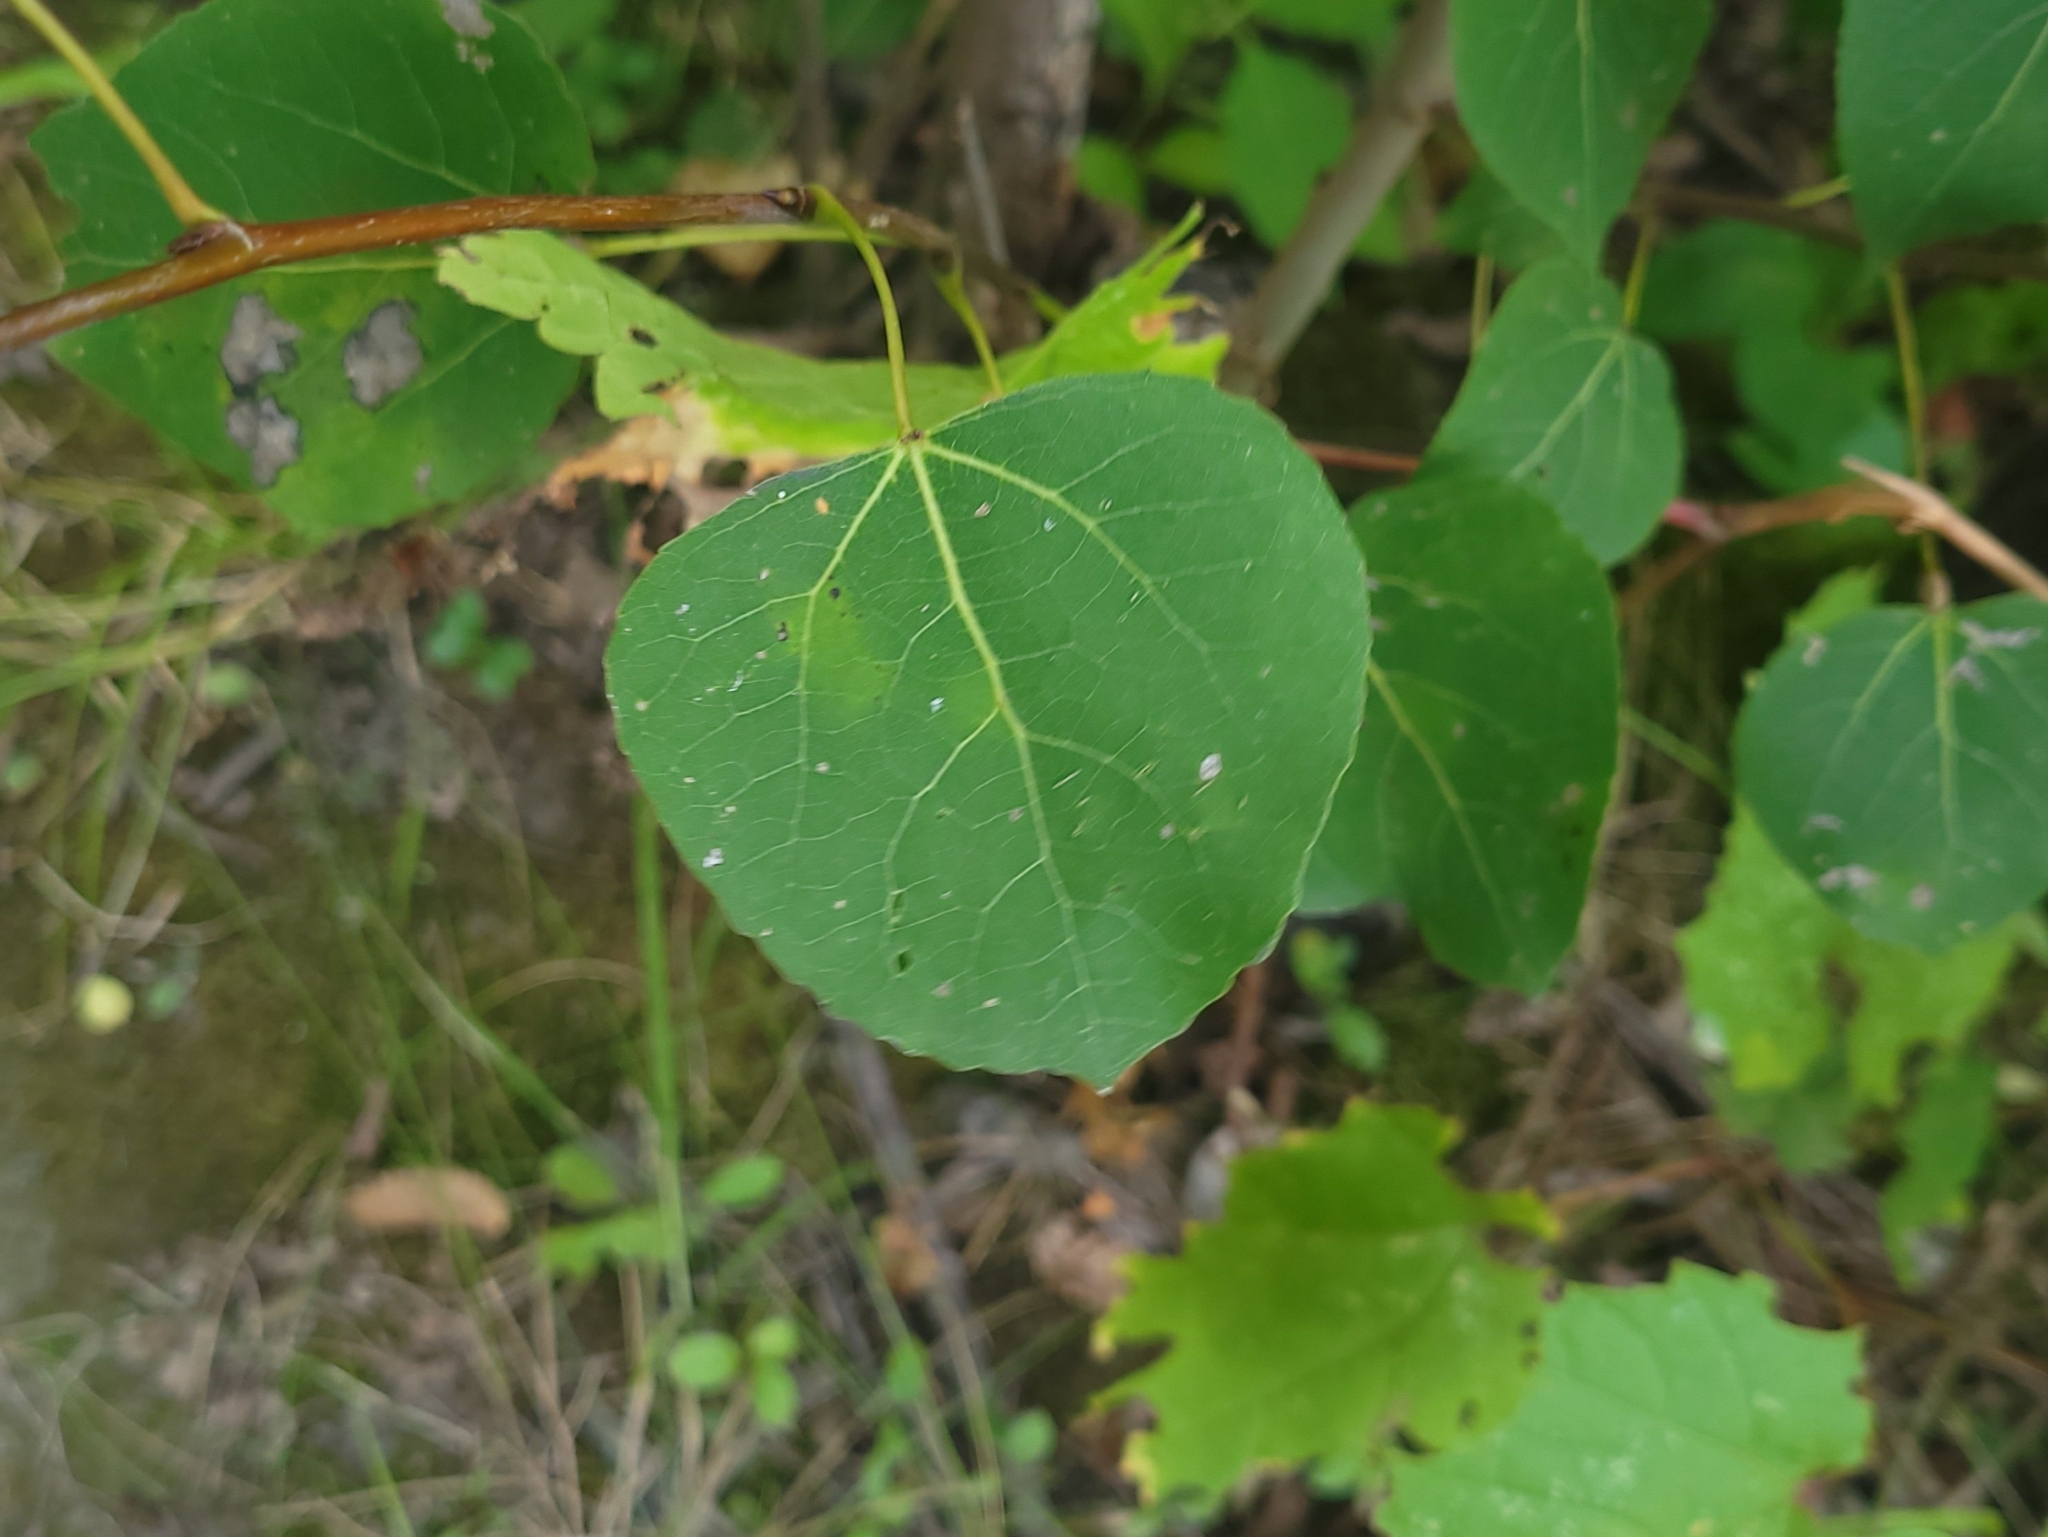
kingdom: Plantae
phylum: Tracheophyta
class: Magnoliopsida
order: Malpighiales
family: Salicaceae
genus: Populus
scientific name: Populus tremuloides
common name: Quaking aspen
